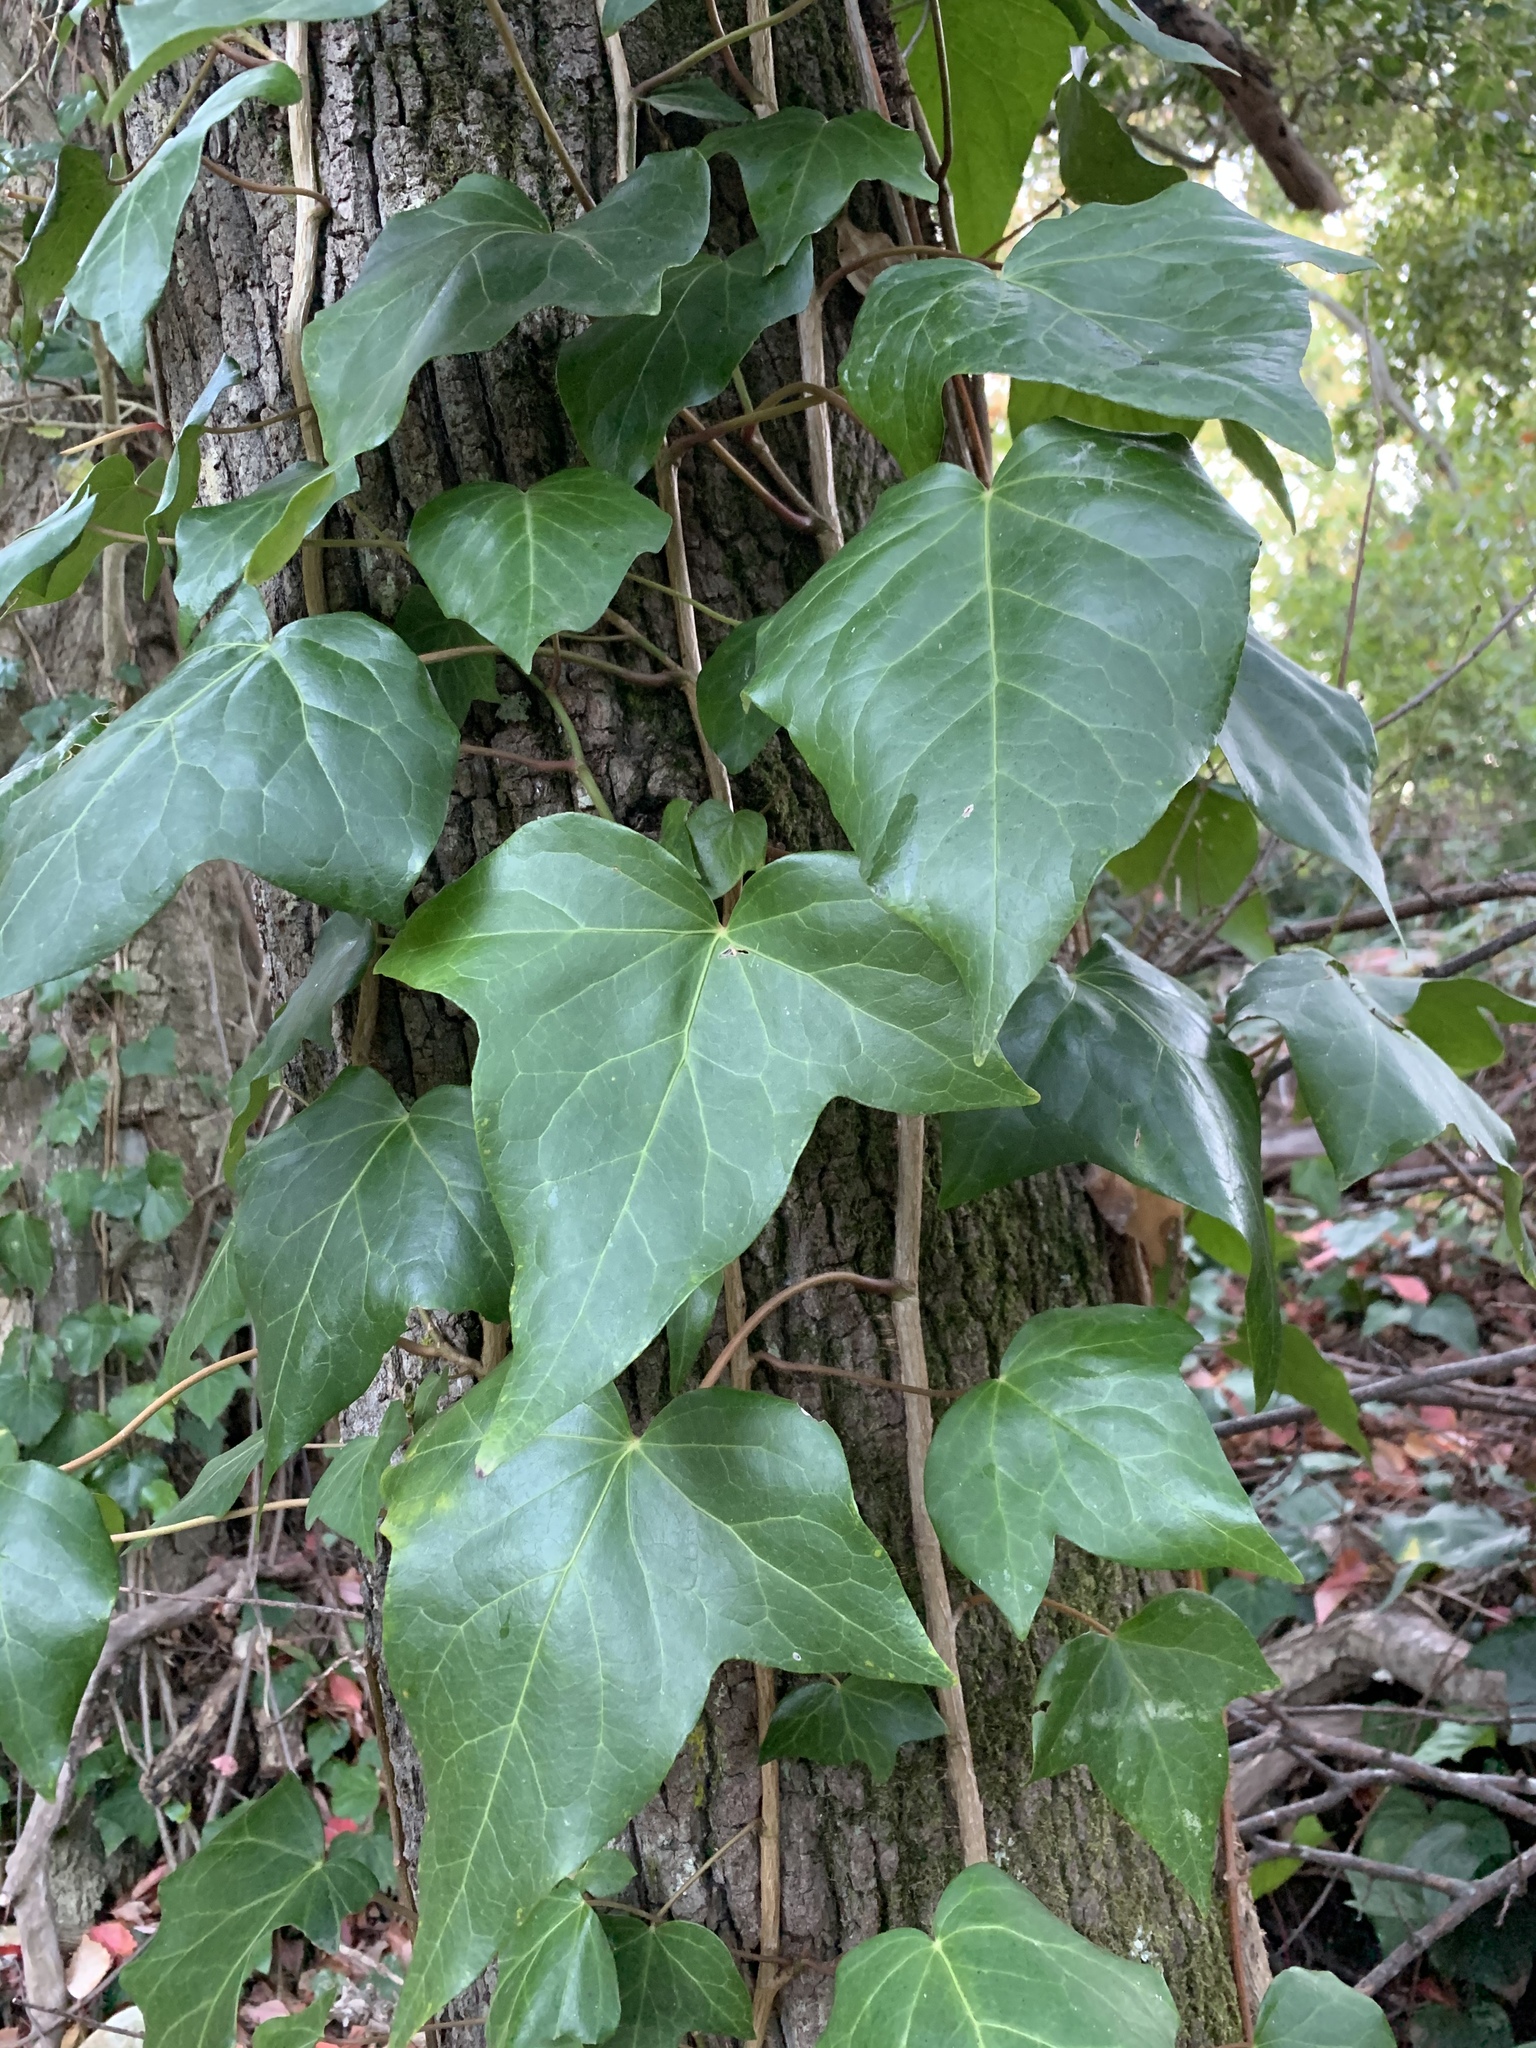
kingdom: Plantae
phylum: Tracheophyta
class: Magnoliopsida
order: Apiales
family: Araliaceae
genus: Hedera
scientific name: Hedera canariensis
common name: Madeira ivy
